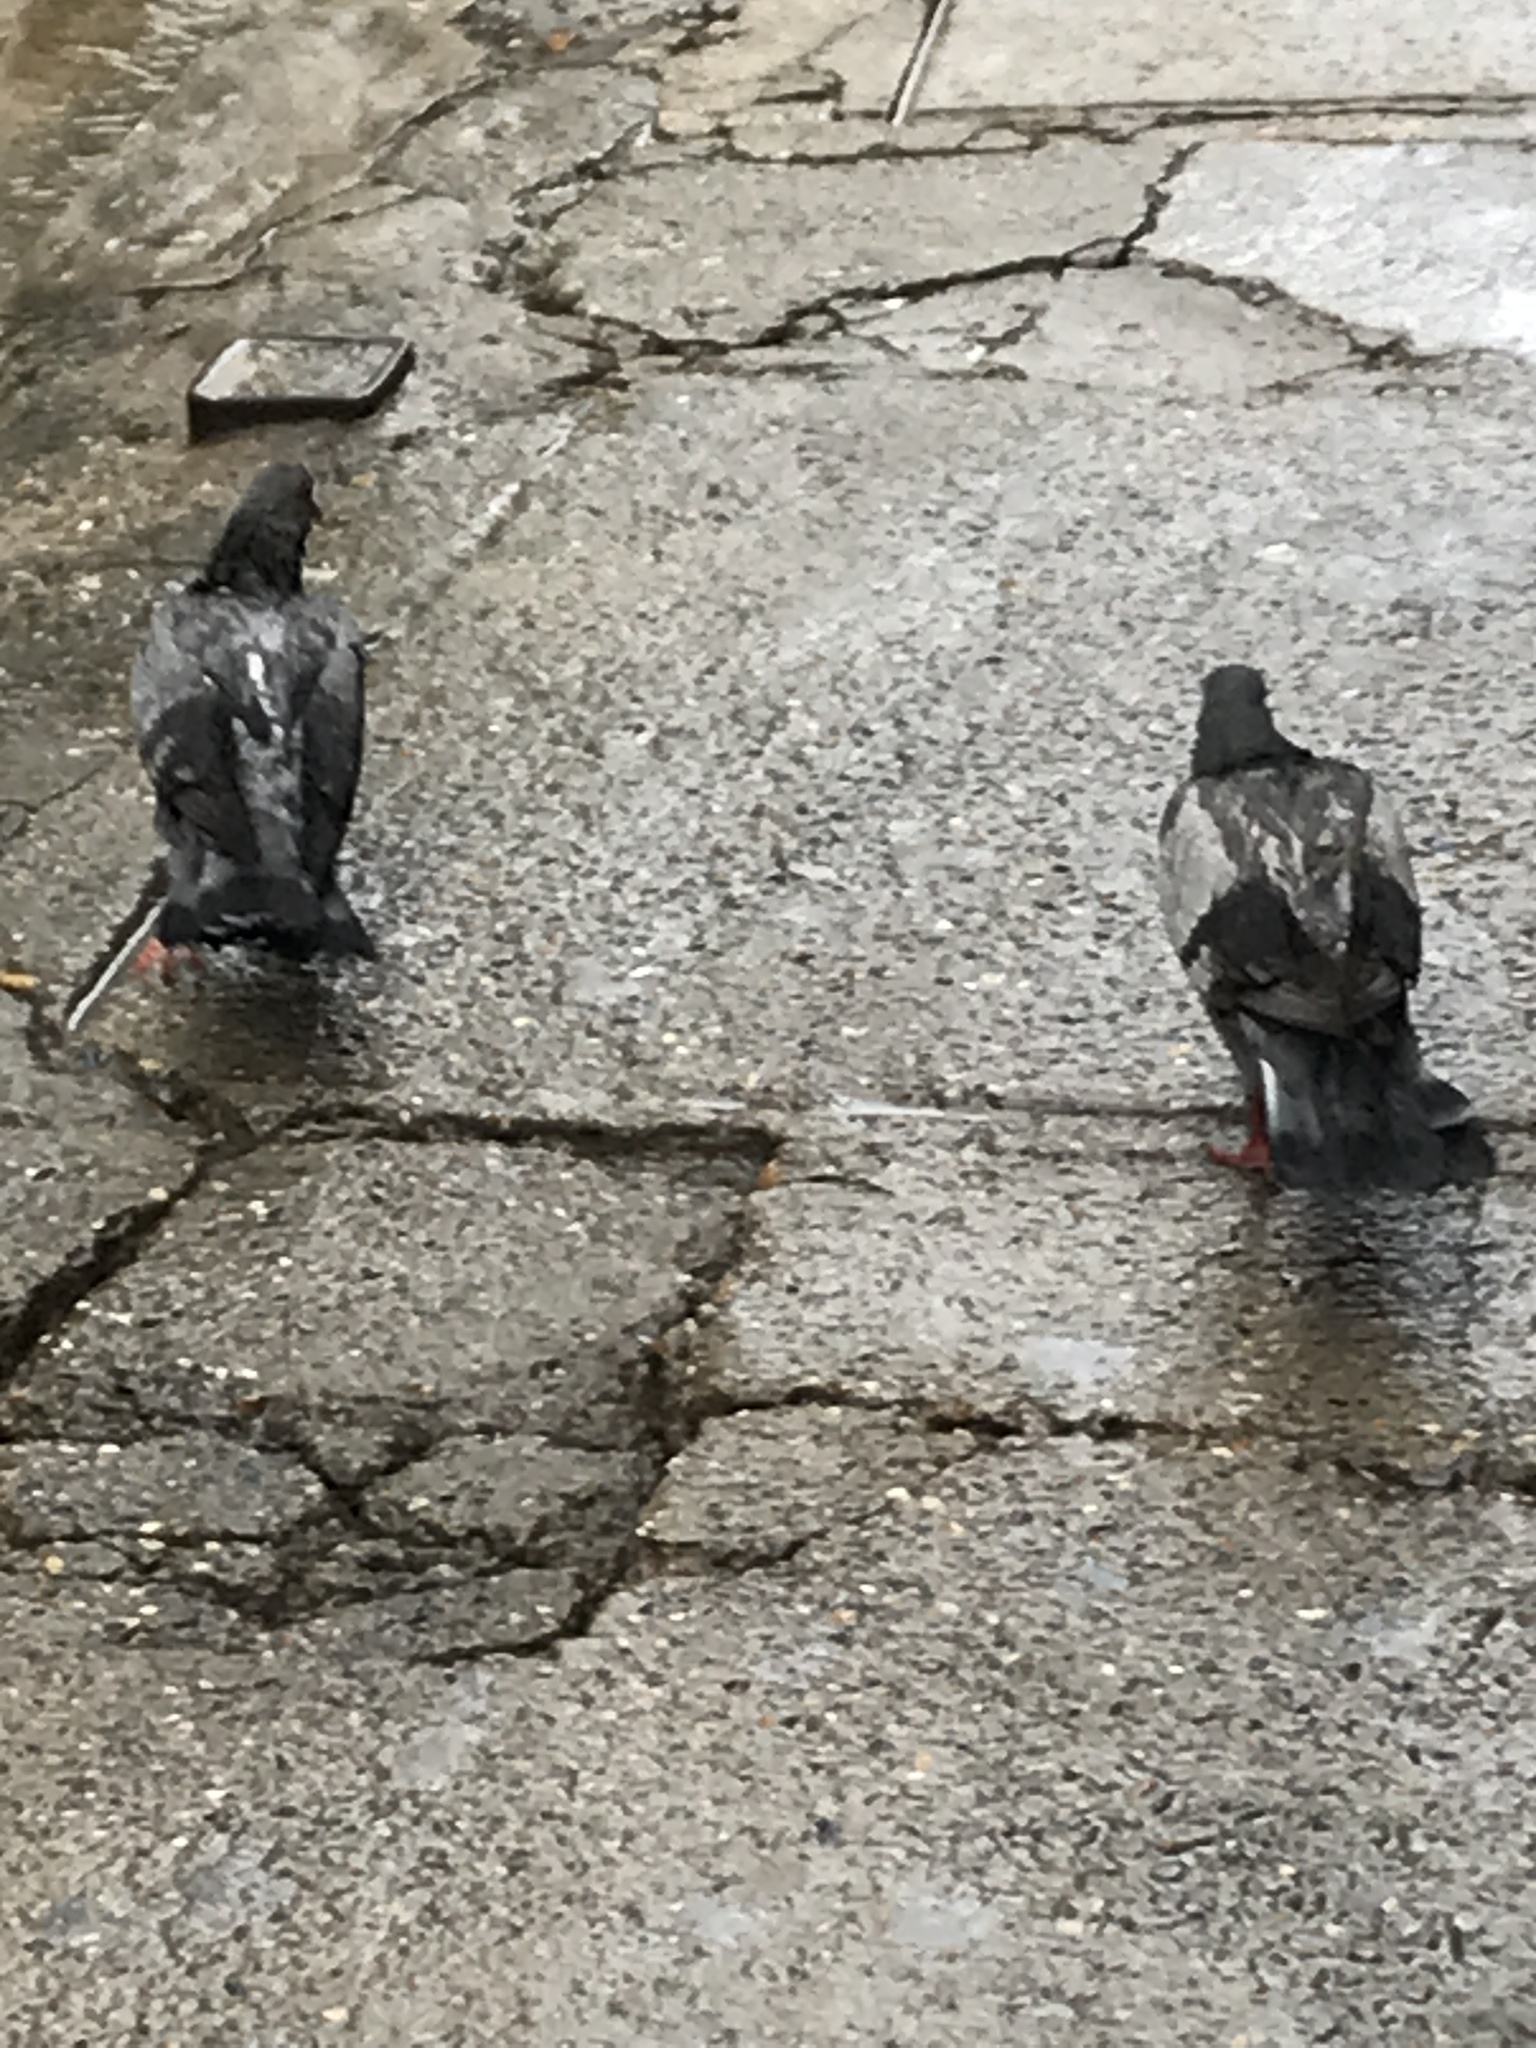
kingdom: Animalia
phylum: Chordata
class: Aves
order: Columbiformes
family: Columbidae
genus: Columba
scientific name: Columba livia
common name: Rock pigeon
